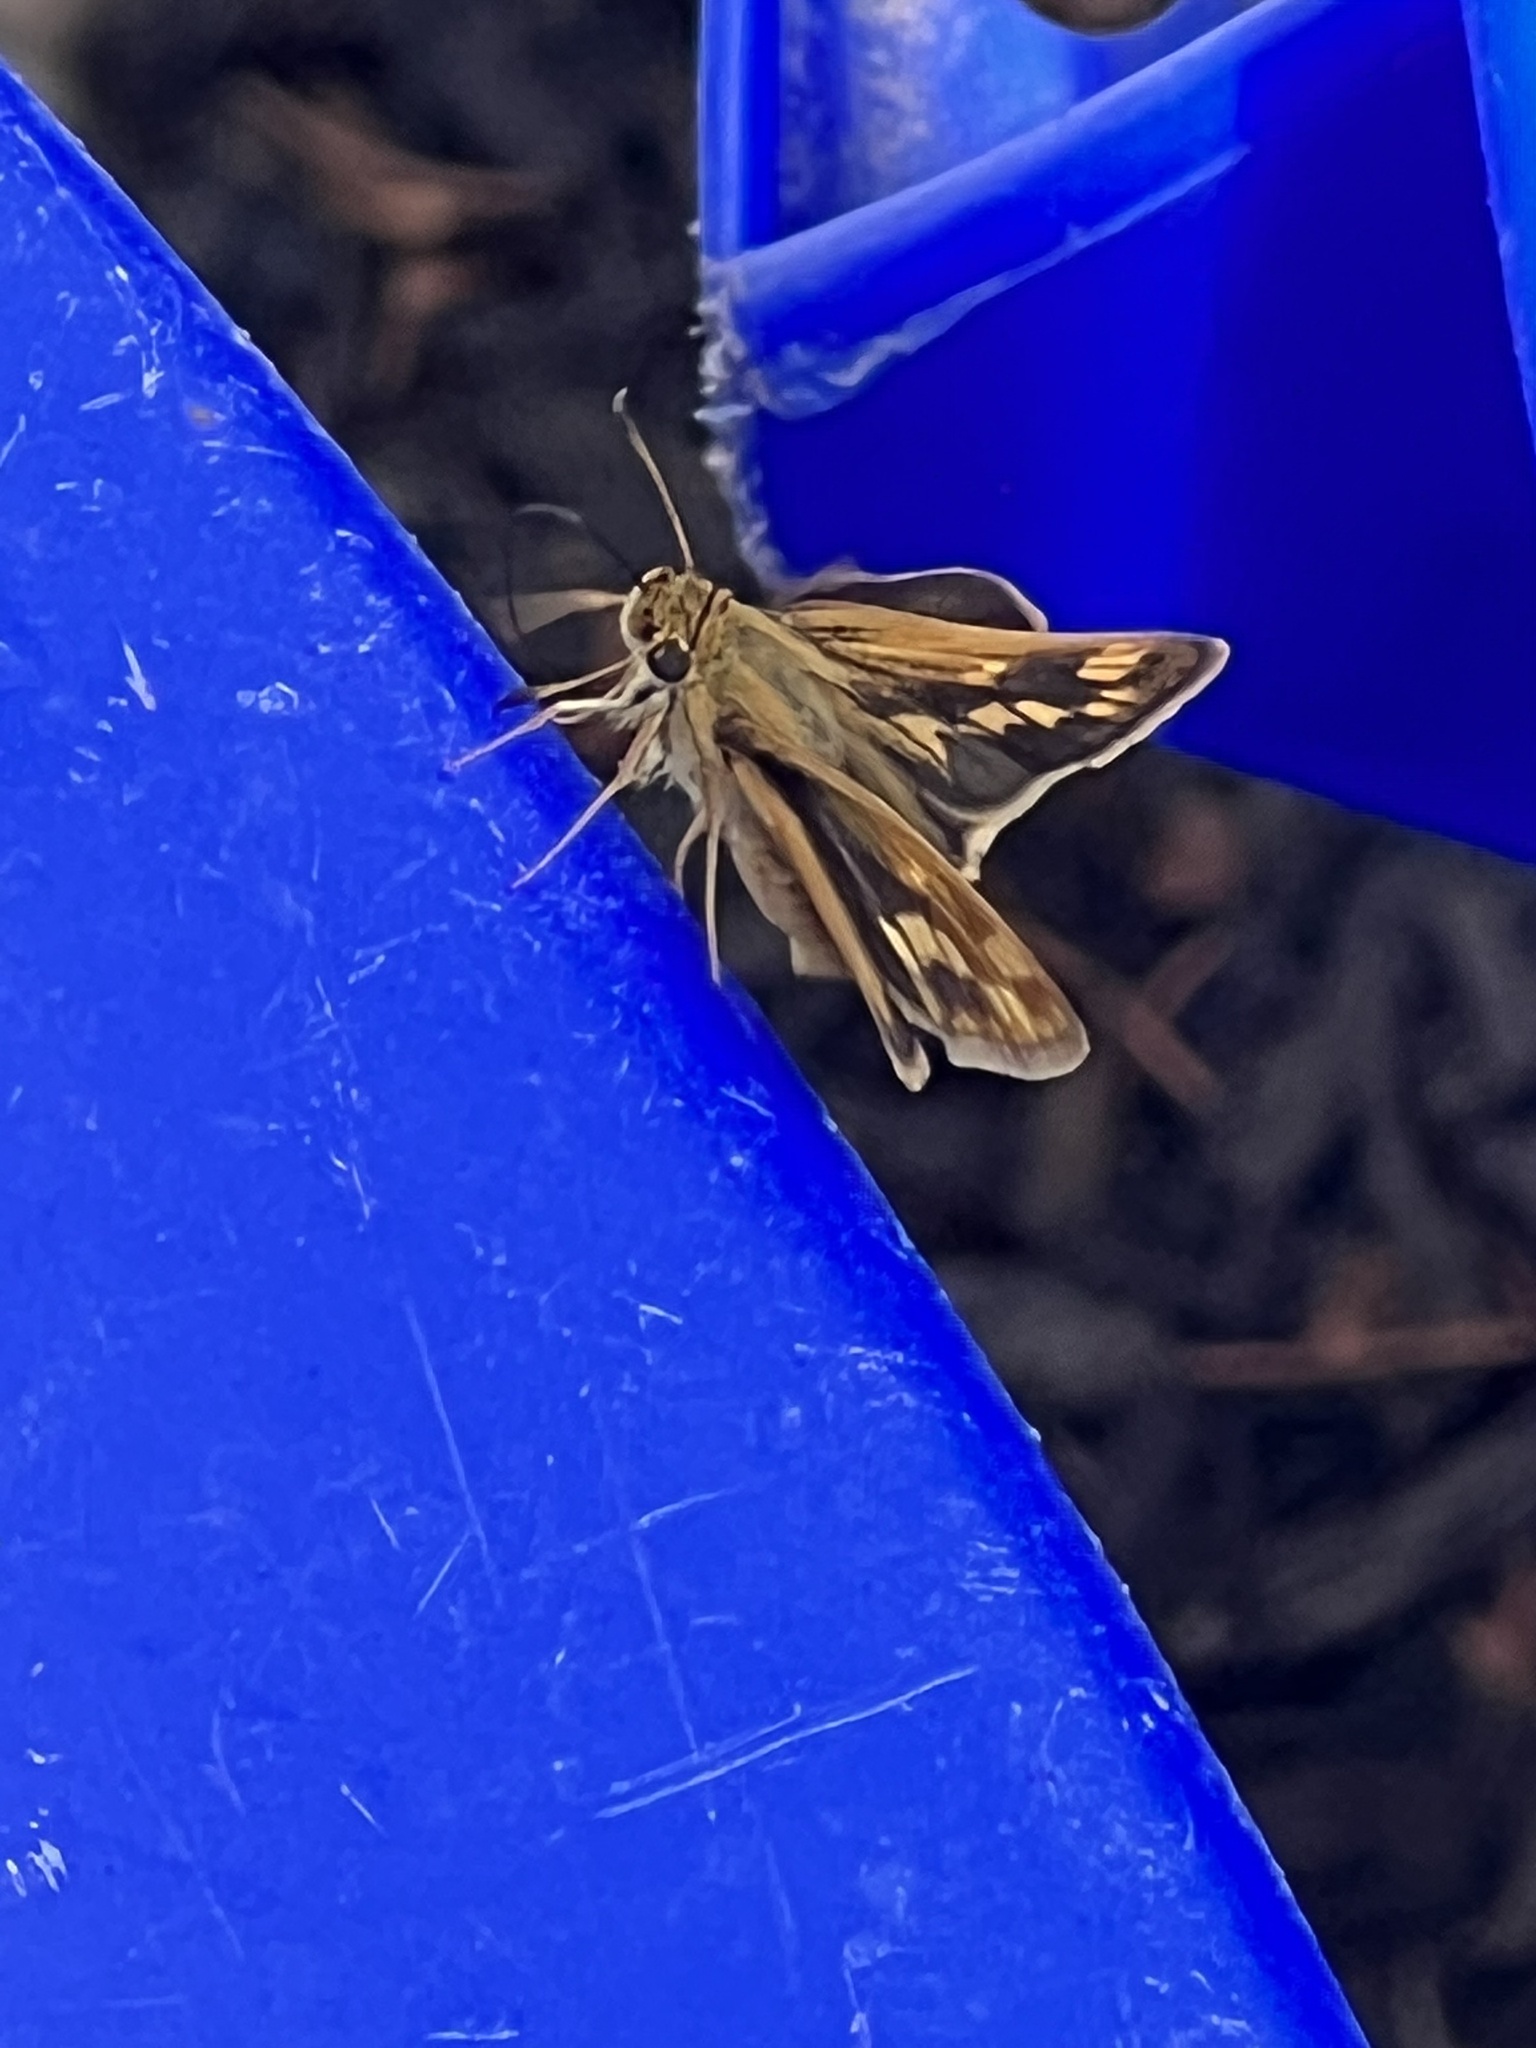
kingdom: Animalia
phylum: Arthropoda
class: Insecta
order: Lepidoptera
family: Hesperiidae
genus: Polites
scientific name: Polites coras
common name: Peck's skipper
